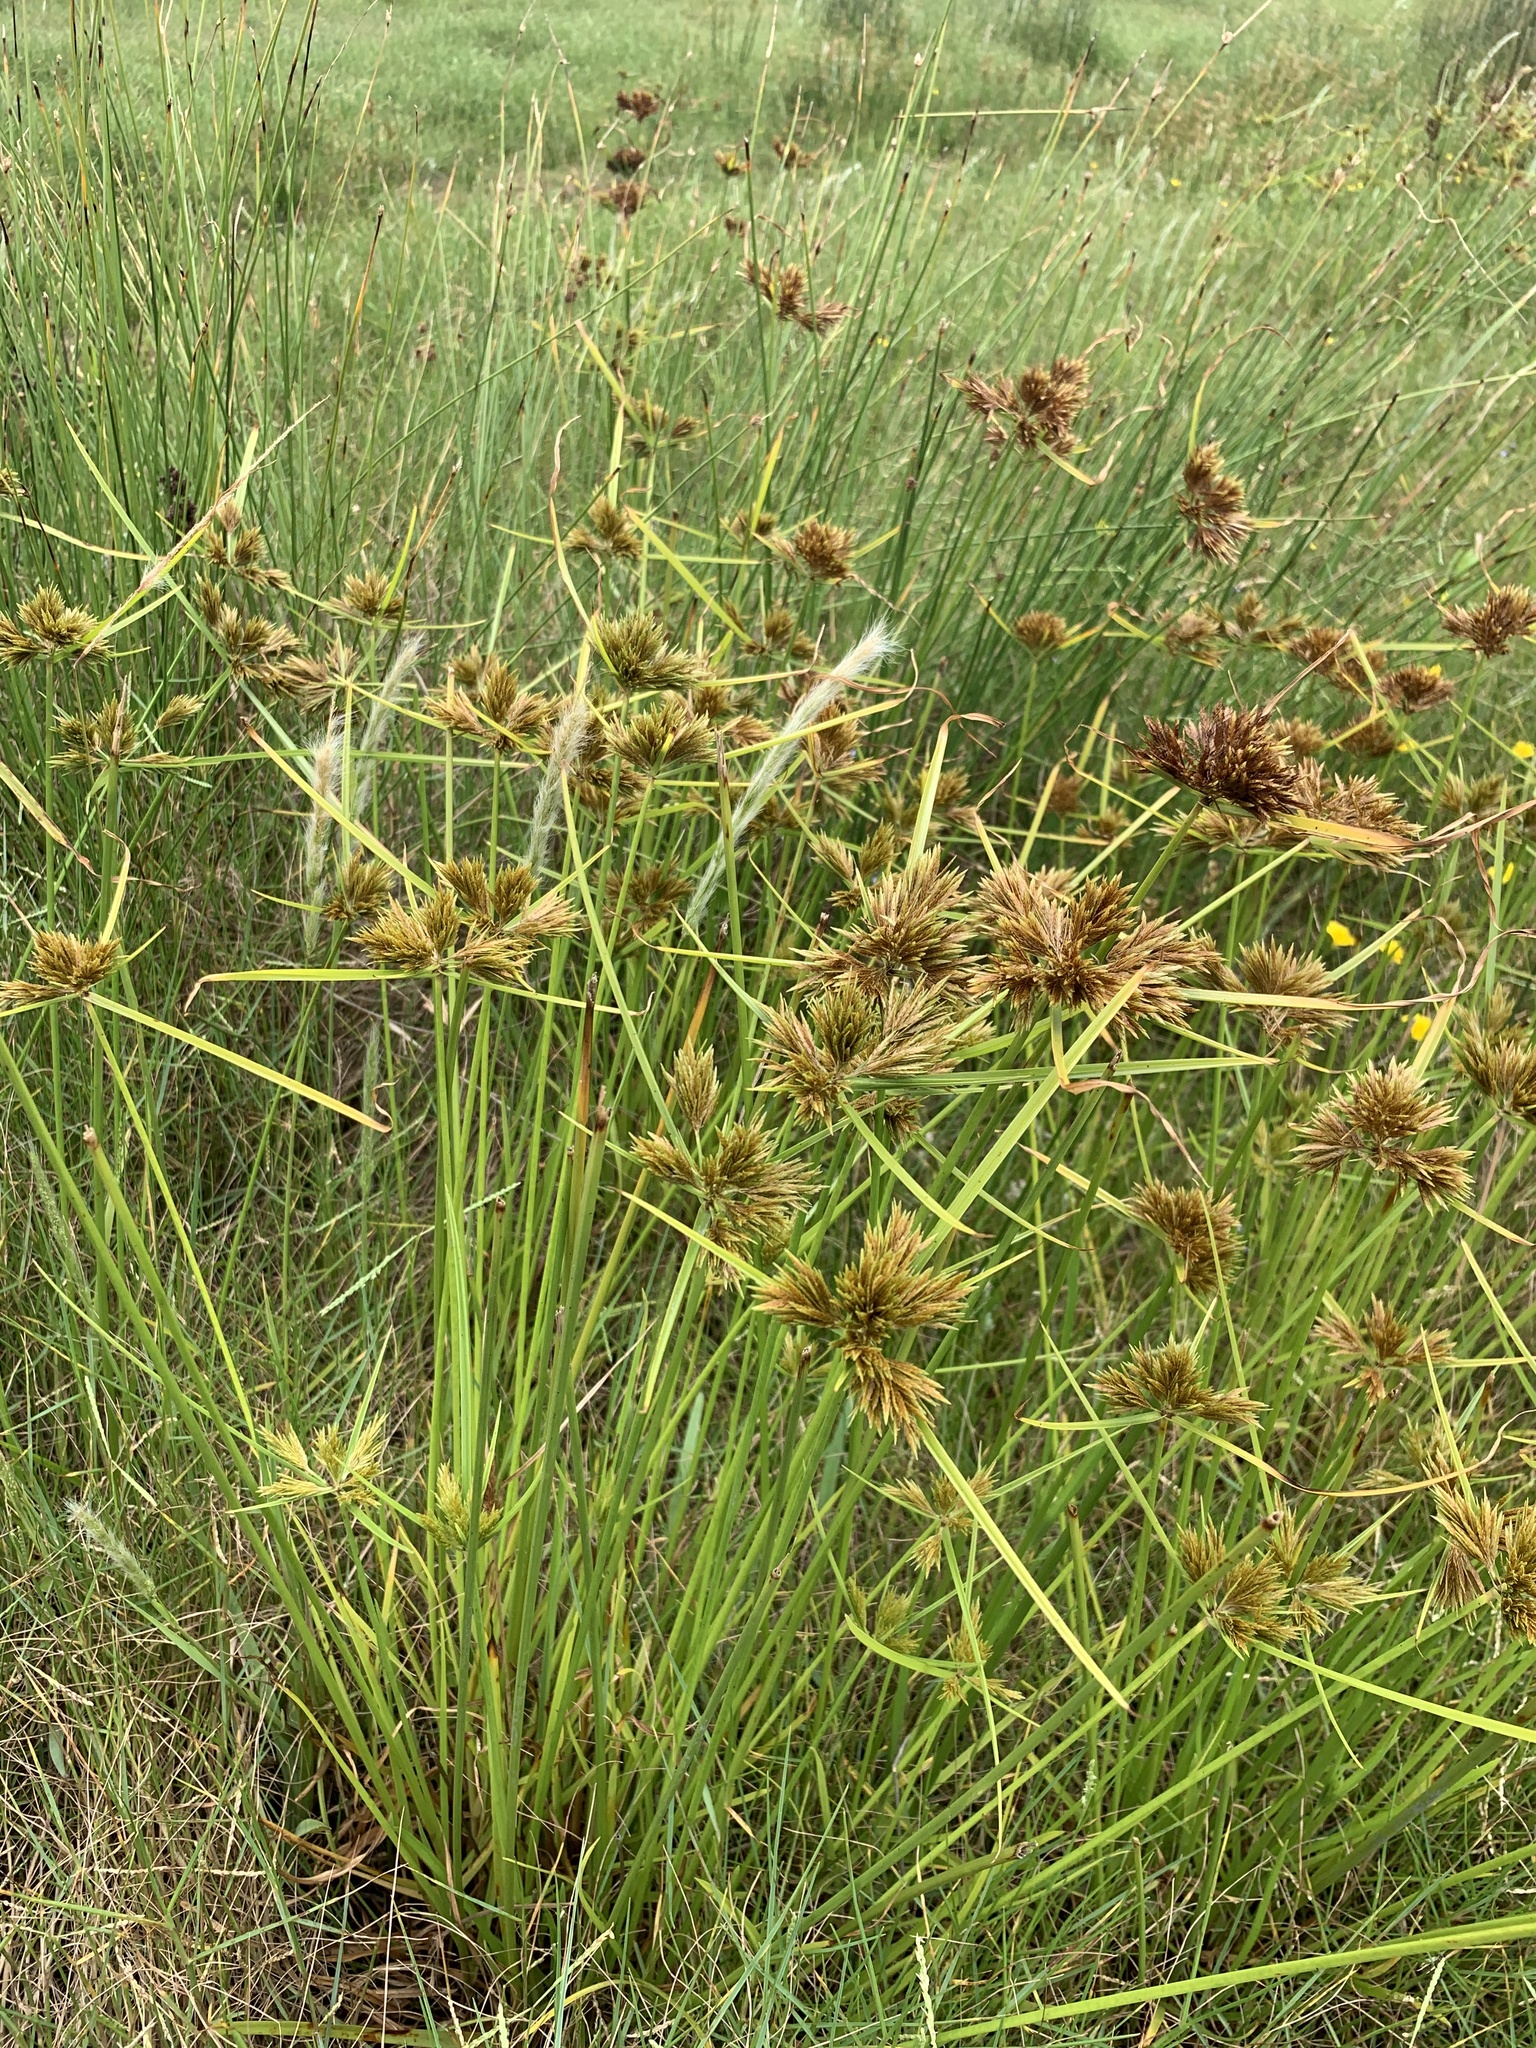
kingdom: Plantae
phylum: Tracheophyta
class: Liliopsida
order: Poales
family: Cyperaceae
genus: Cyperus
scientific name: Cyperus polystachyos
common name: Bunchy flat sedge
